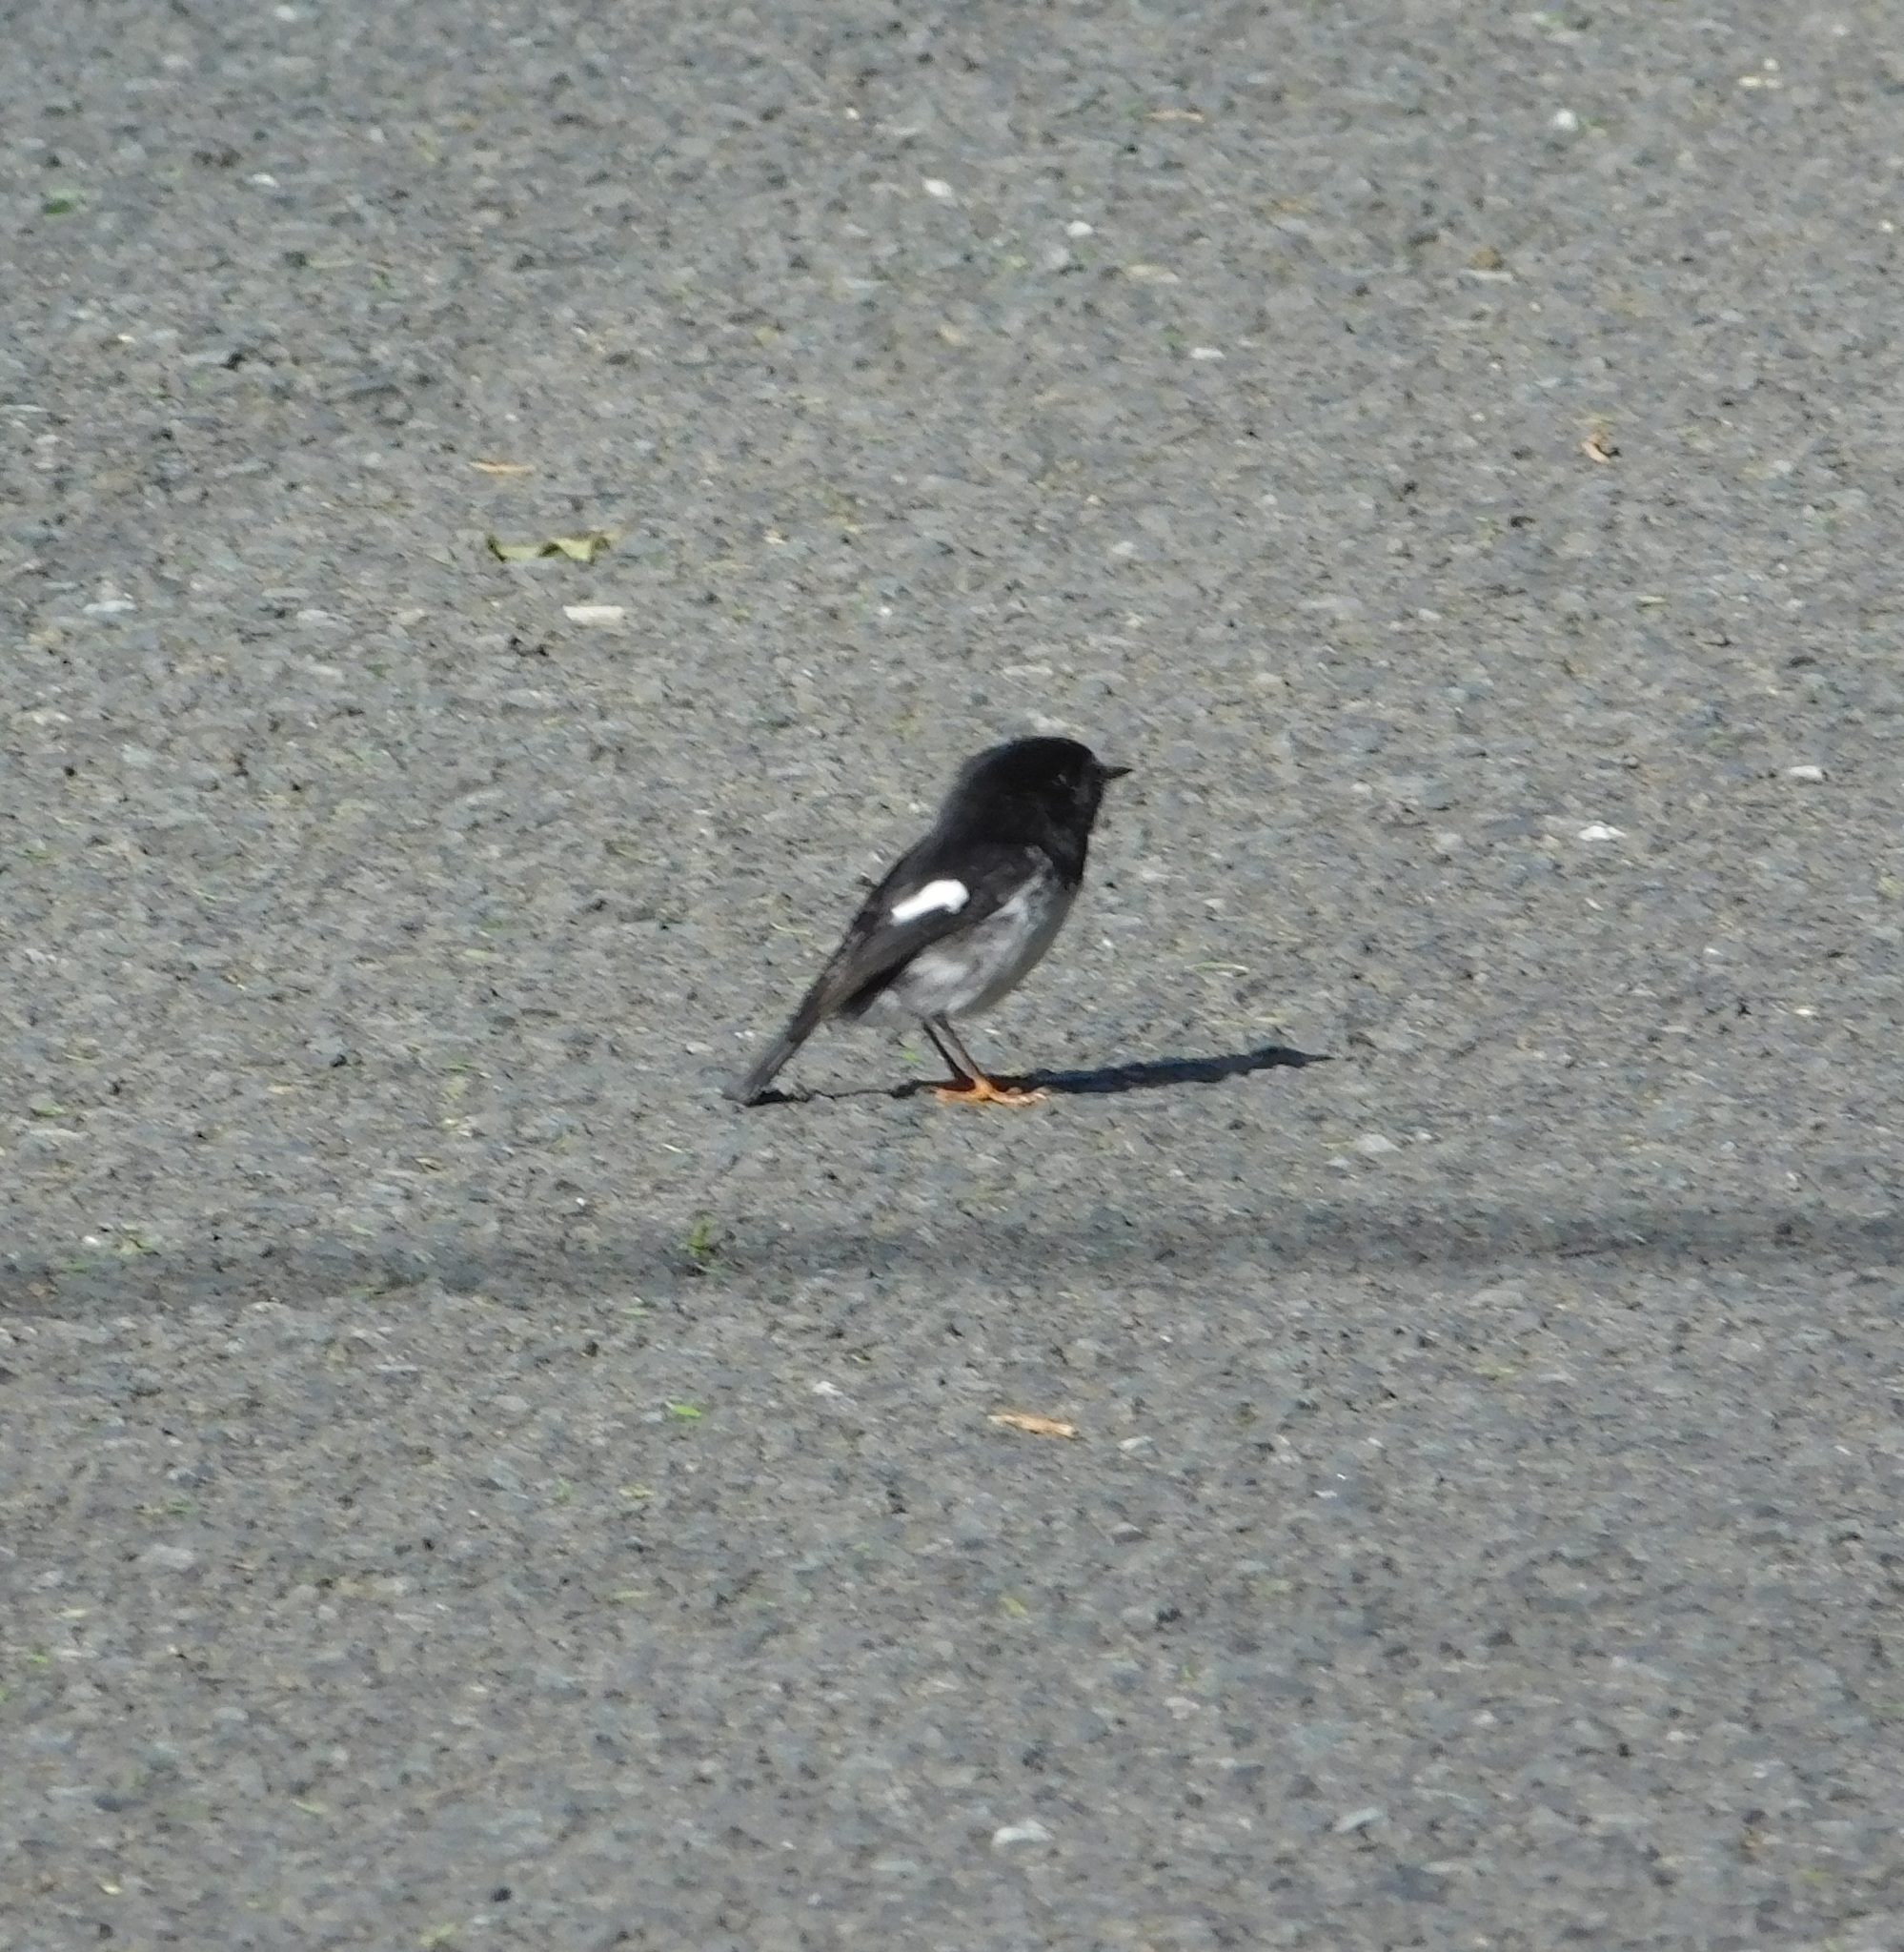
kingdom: Animalia
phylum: Chordata
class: Aves
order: Passeriformes
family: Petroicidae
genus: Petroica
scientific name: Petroica macrocephala
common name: Tomtit
